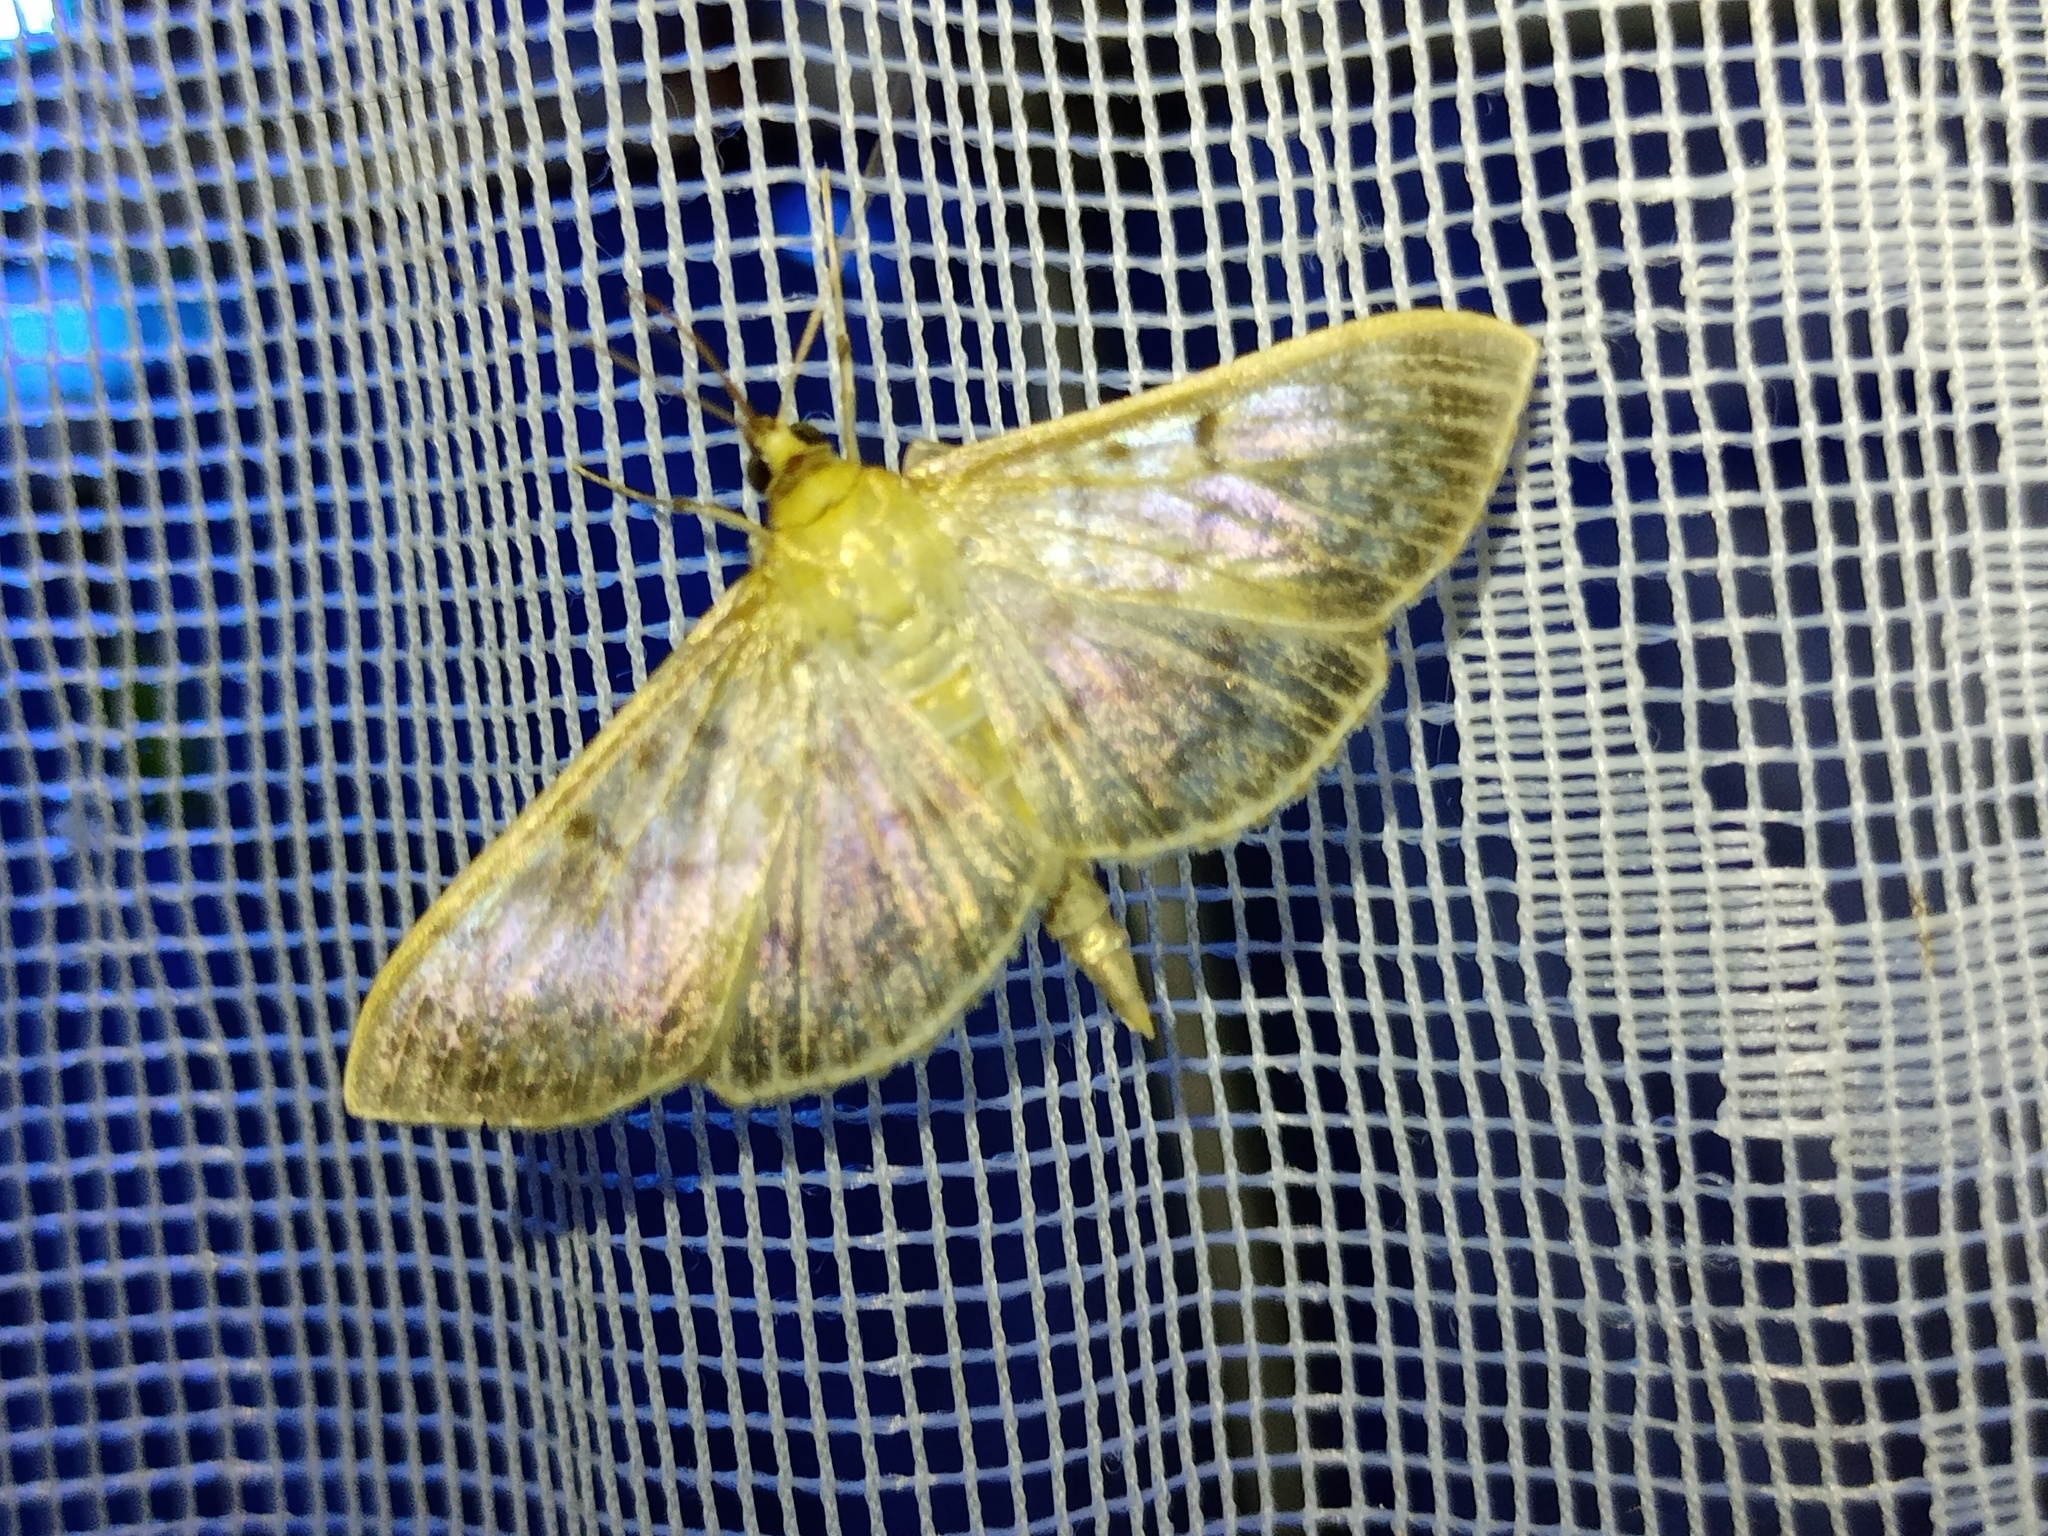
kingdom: Animalia
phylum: Arthropoda
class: Insecta
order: Lepidoptera
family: Crambidae
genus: Patania
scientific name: Patania ruralis
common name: Mother of pearl
